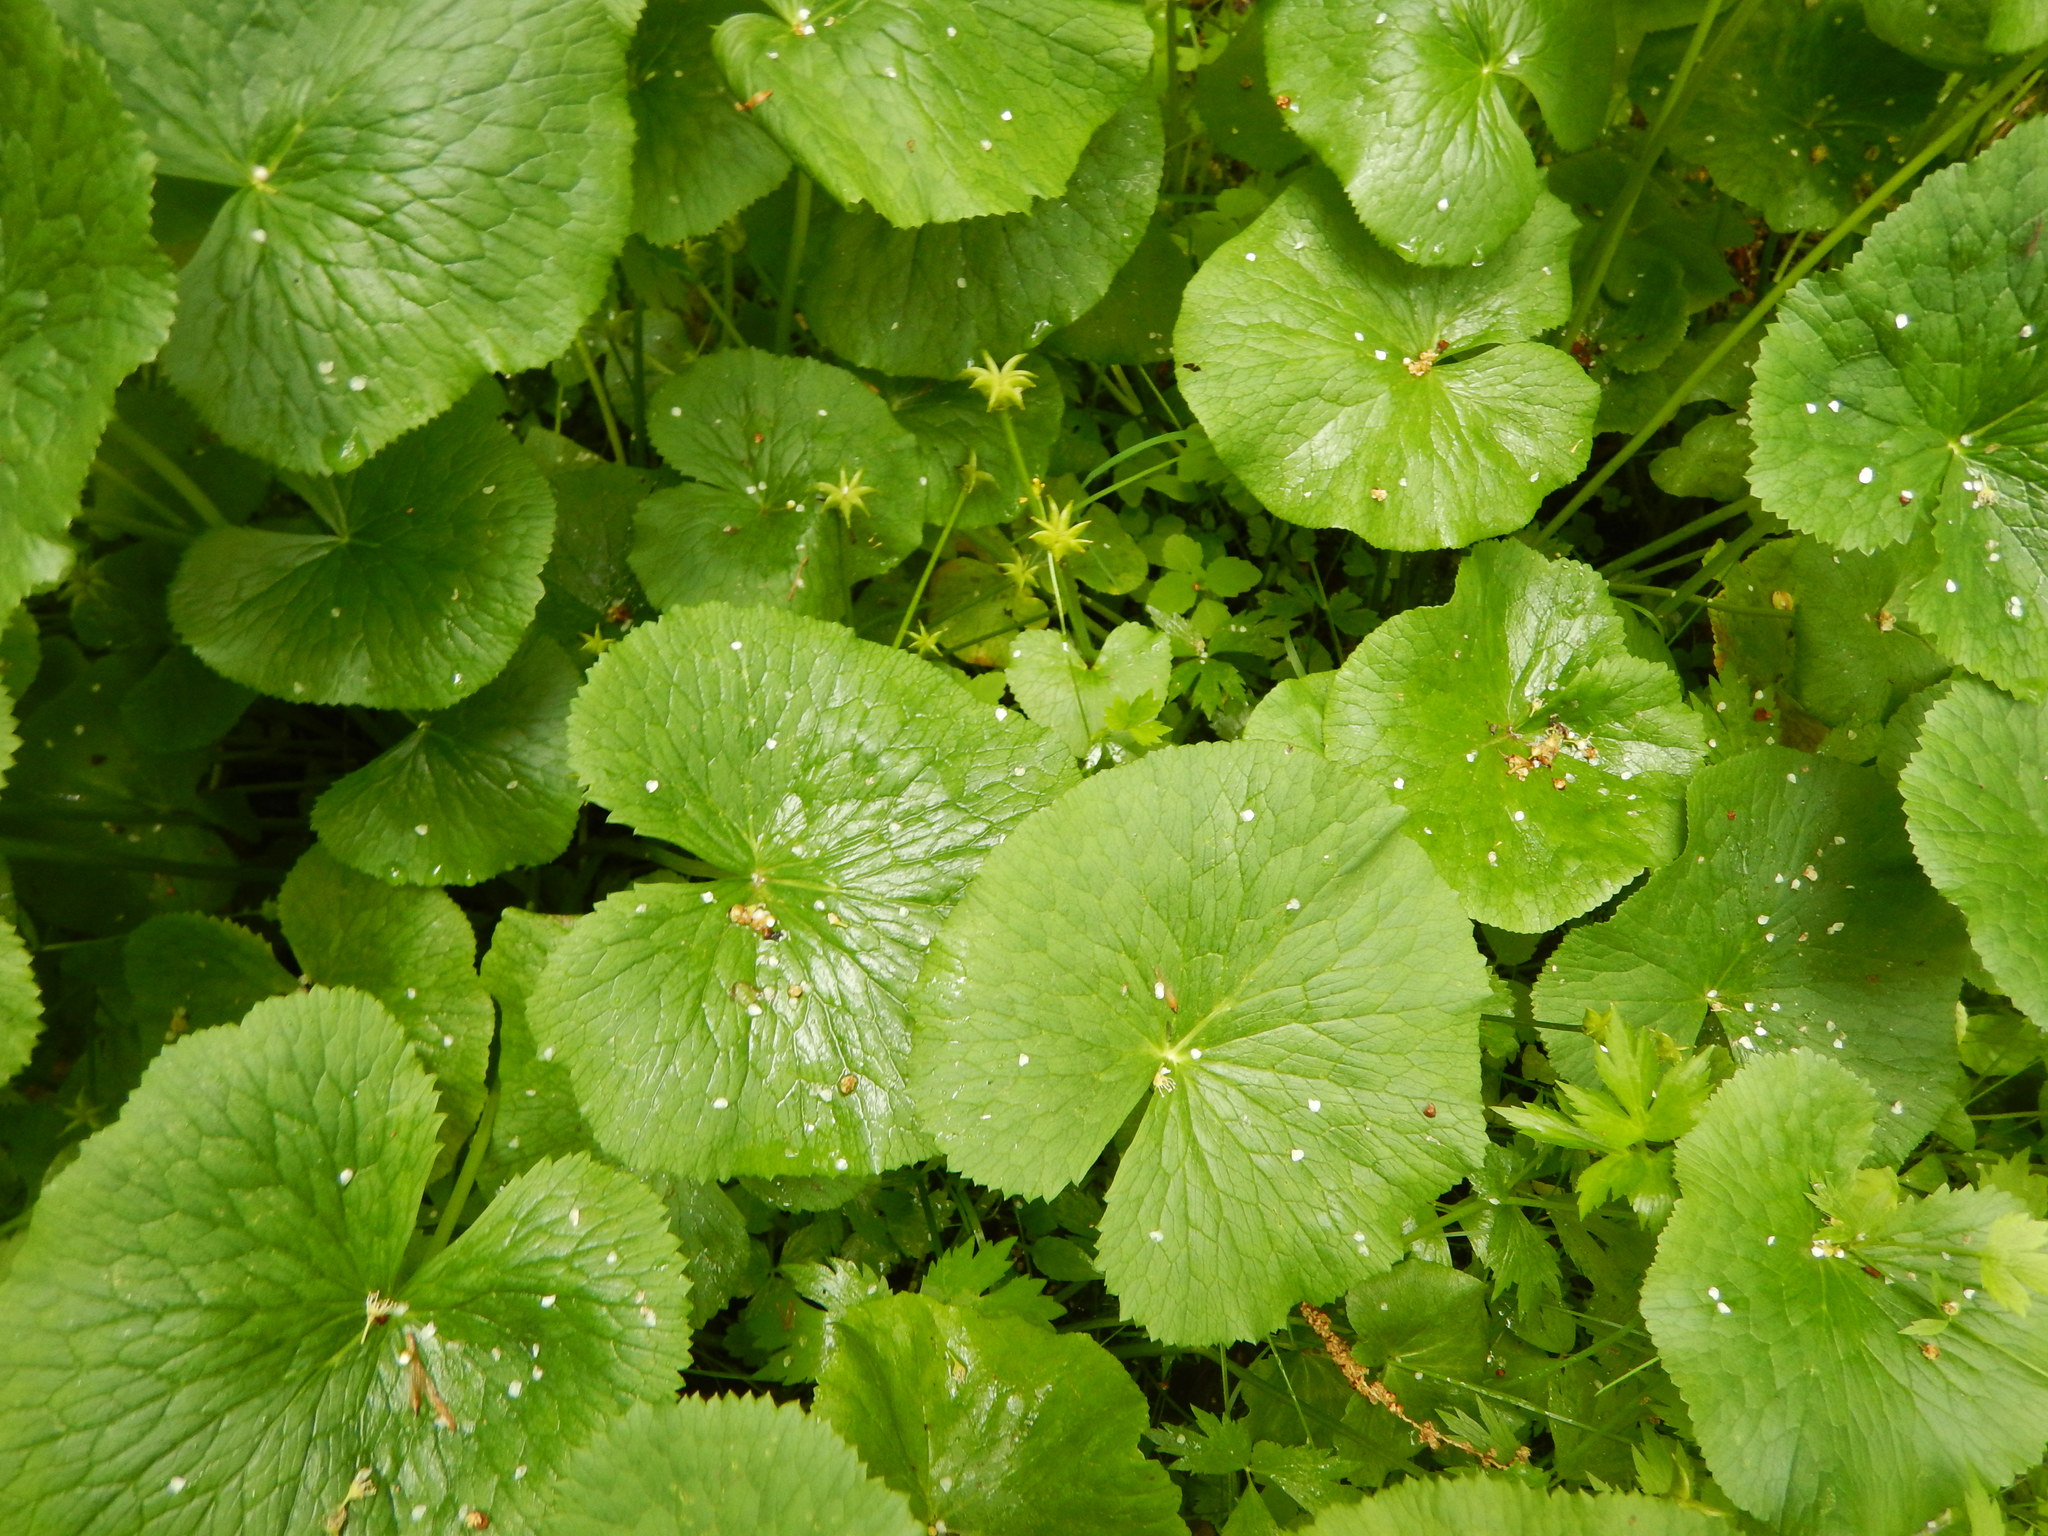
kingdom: Plantae
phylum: Tracheophyta
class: Magnoliopsida
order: Ranunculales
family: Ranunculaceae
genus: Caltha
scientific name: Caltha palustris
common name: Marsh marigold
